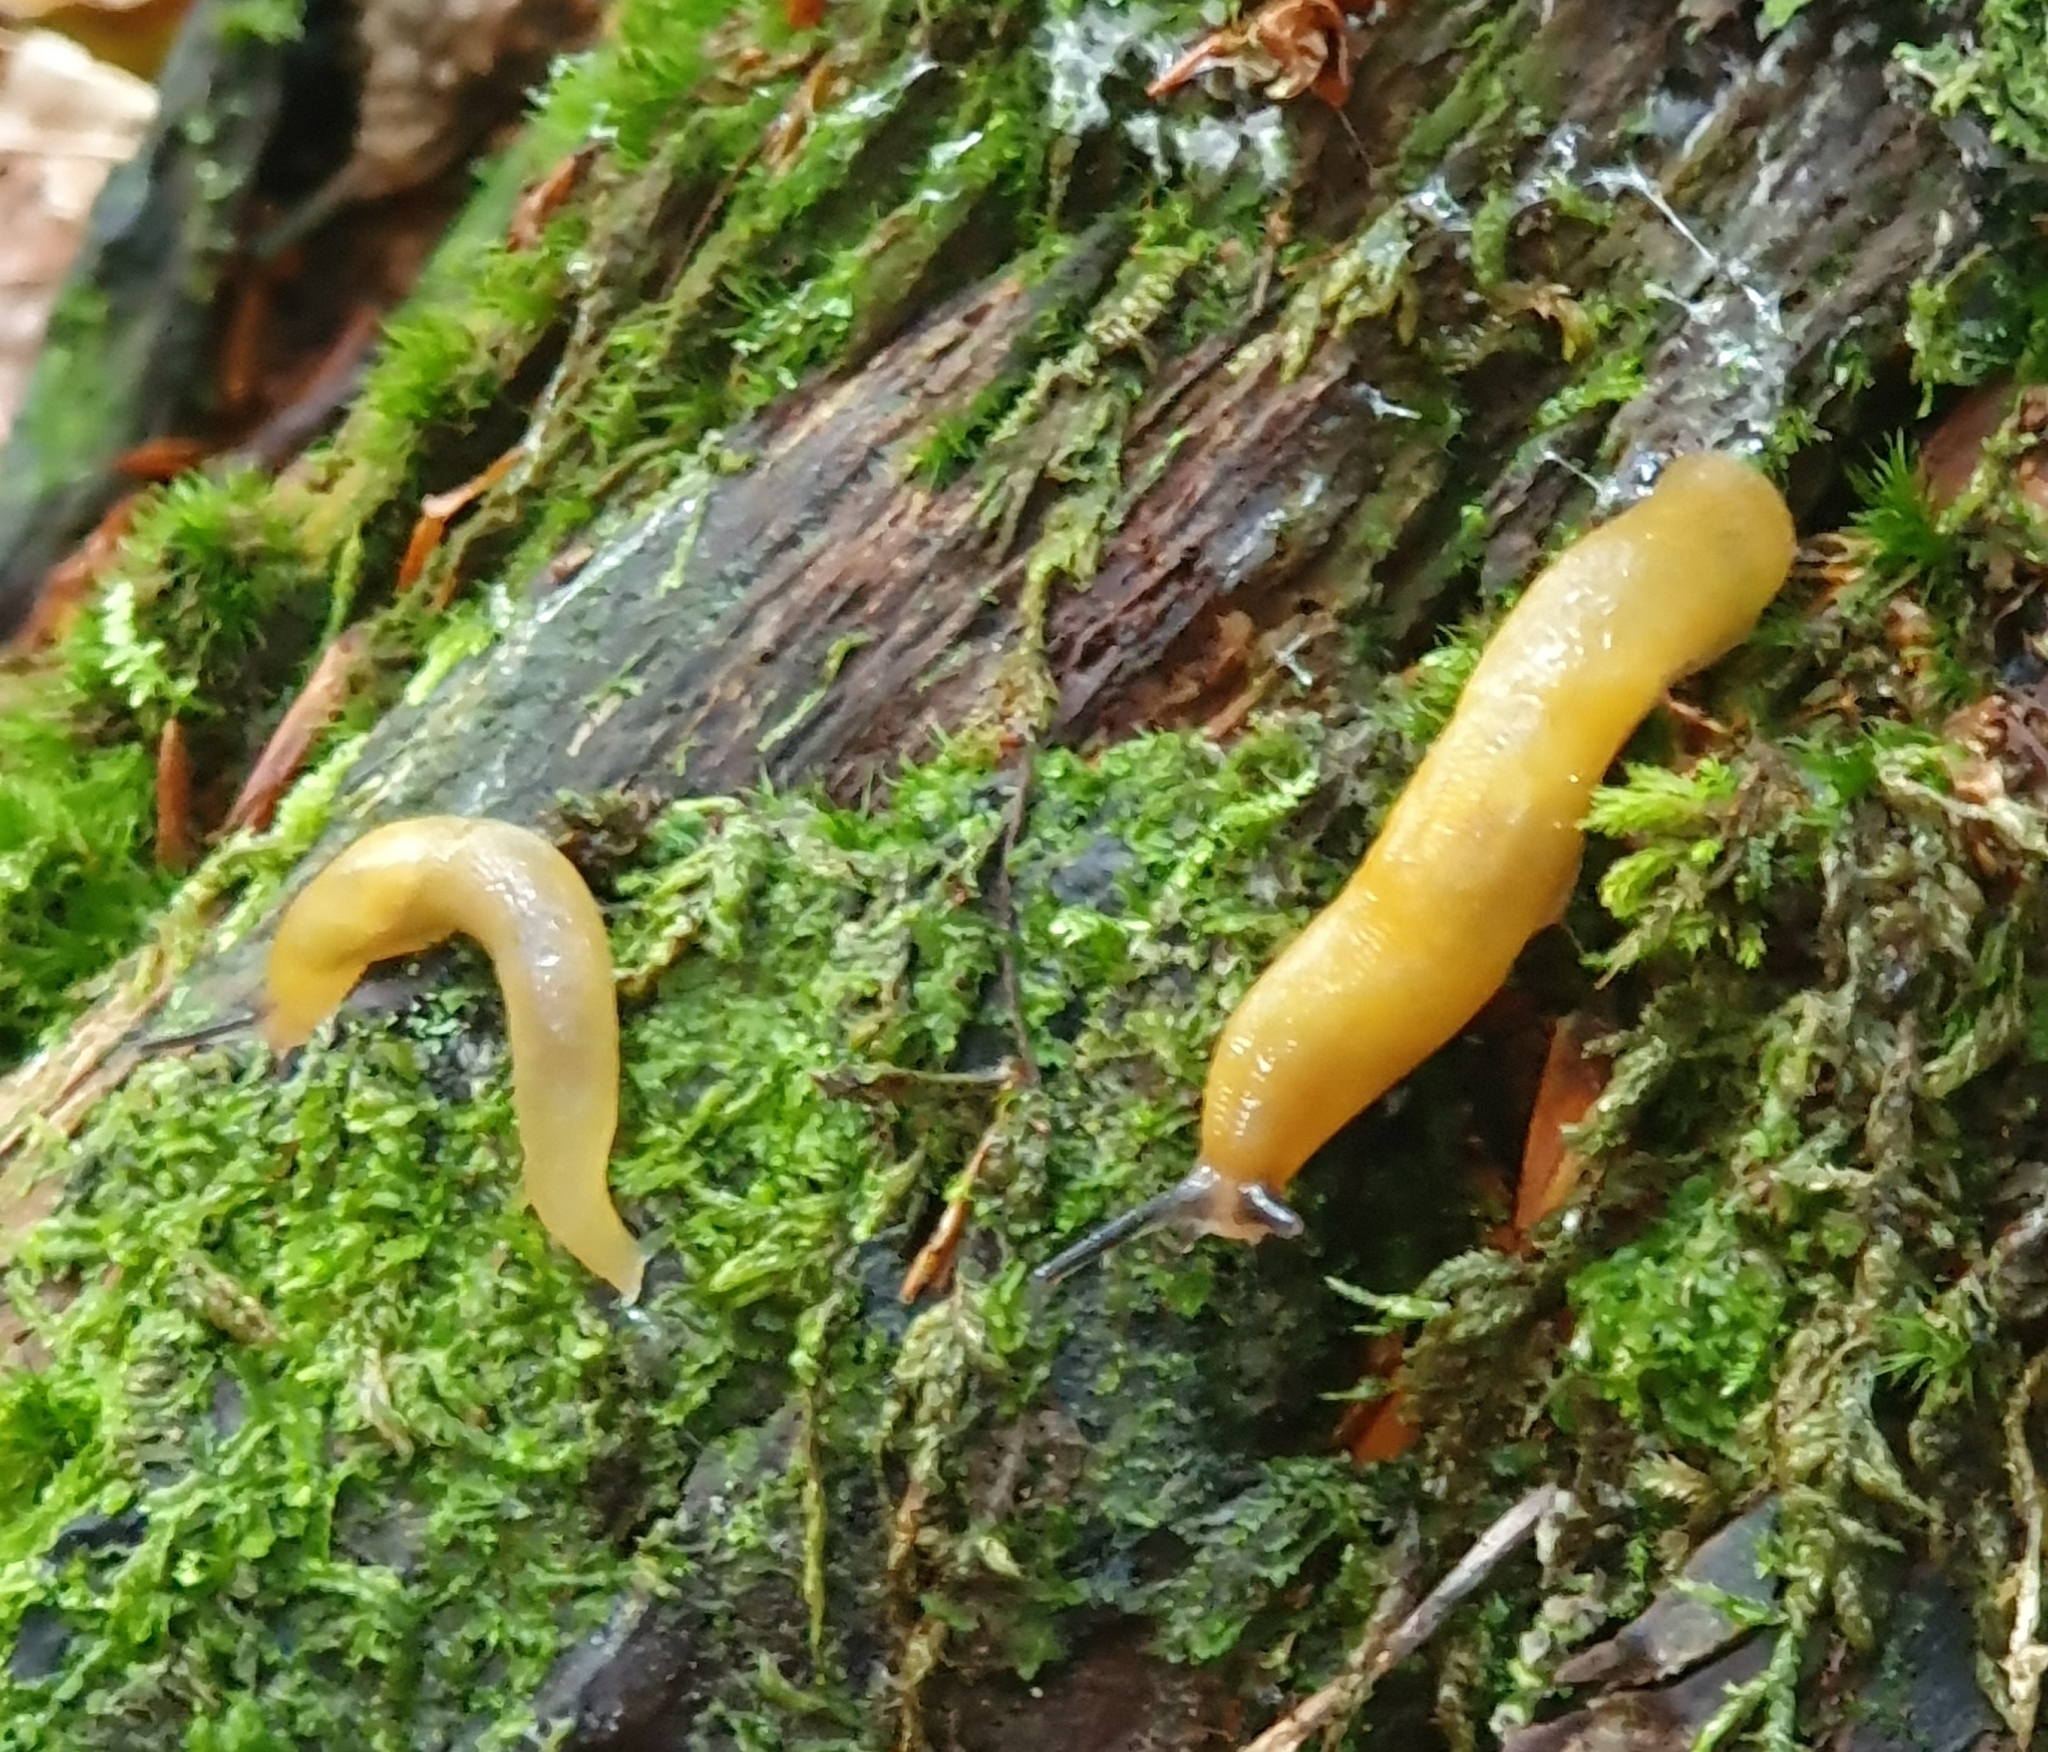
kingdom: Animalia
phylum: Mollusca
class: Gastropoda
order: Stylommatophora
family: Limacidae
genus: Malacolimax
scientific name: Malacolimax tenellus
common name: Lemon slug
